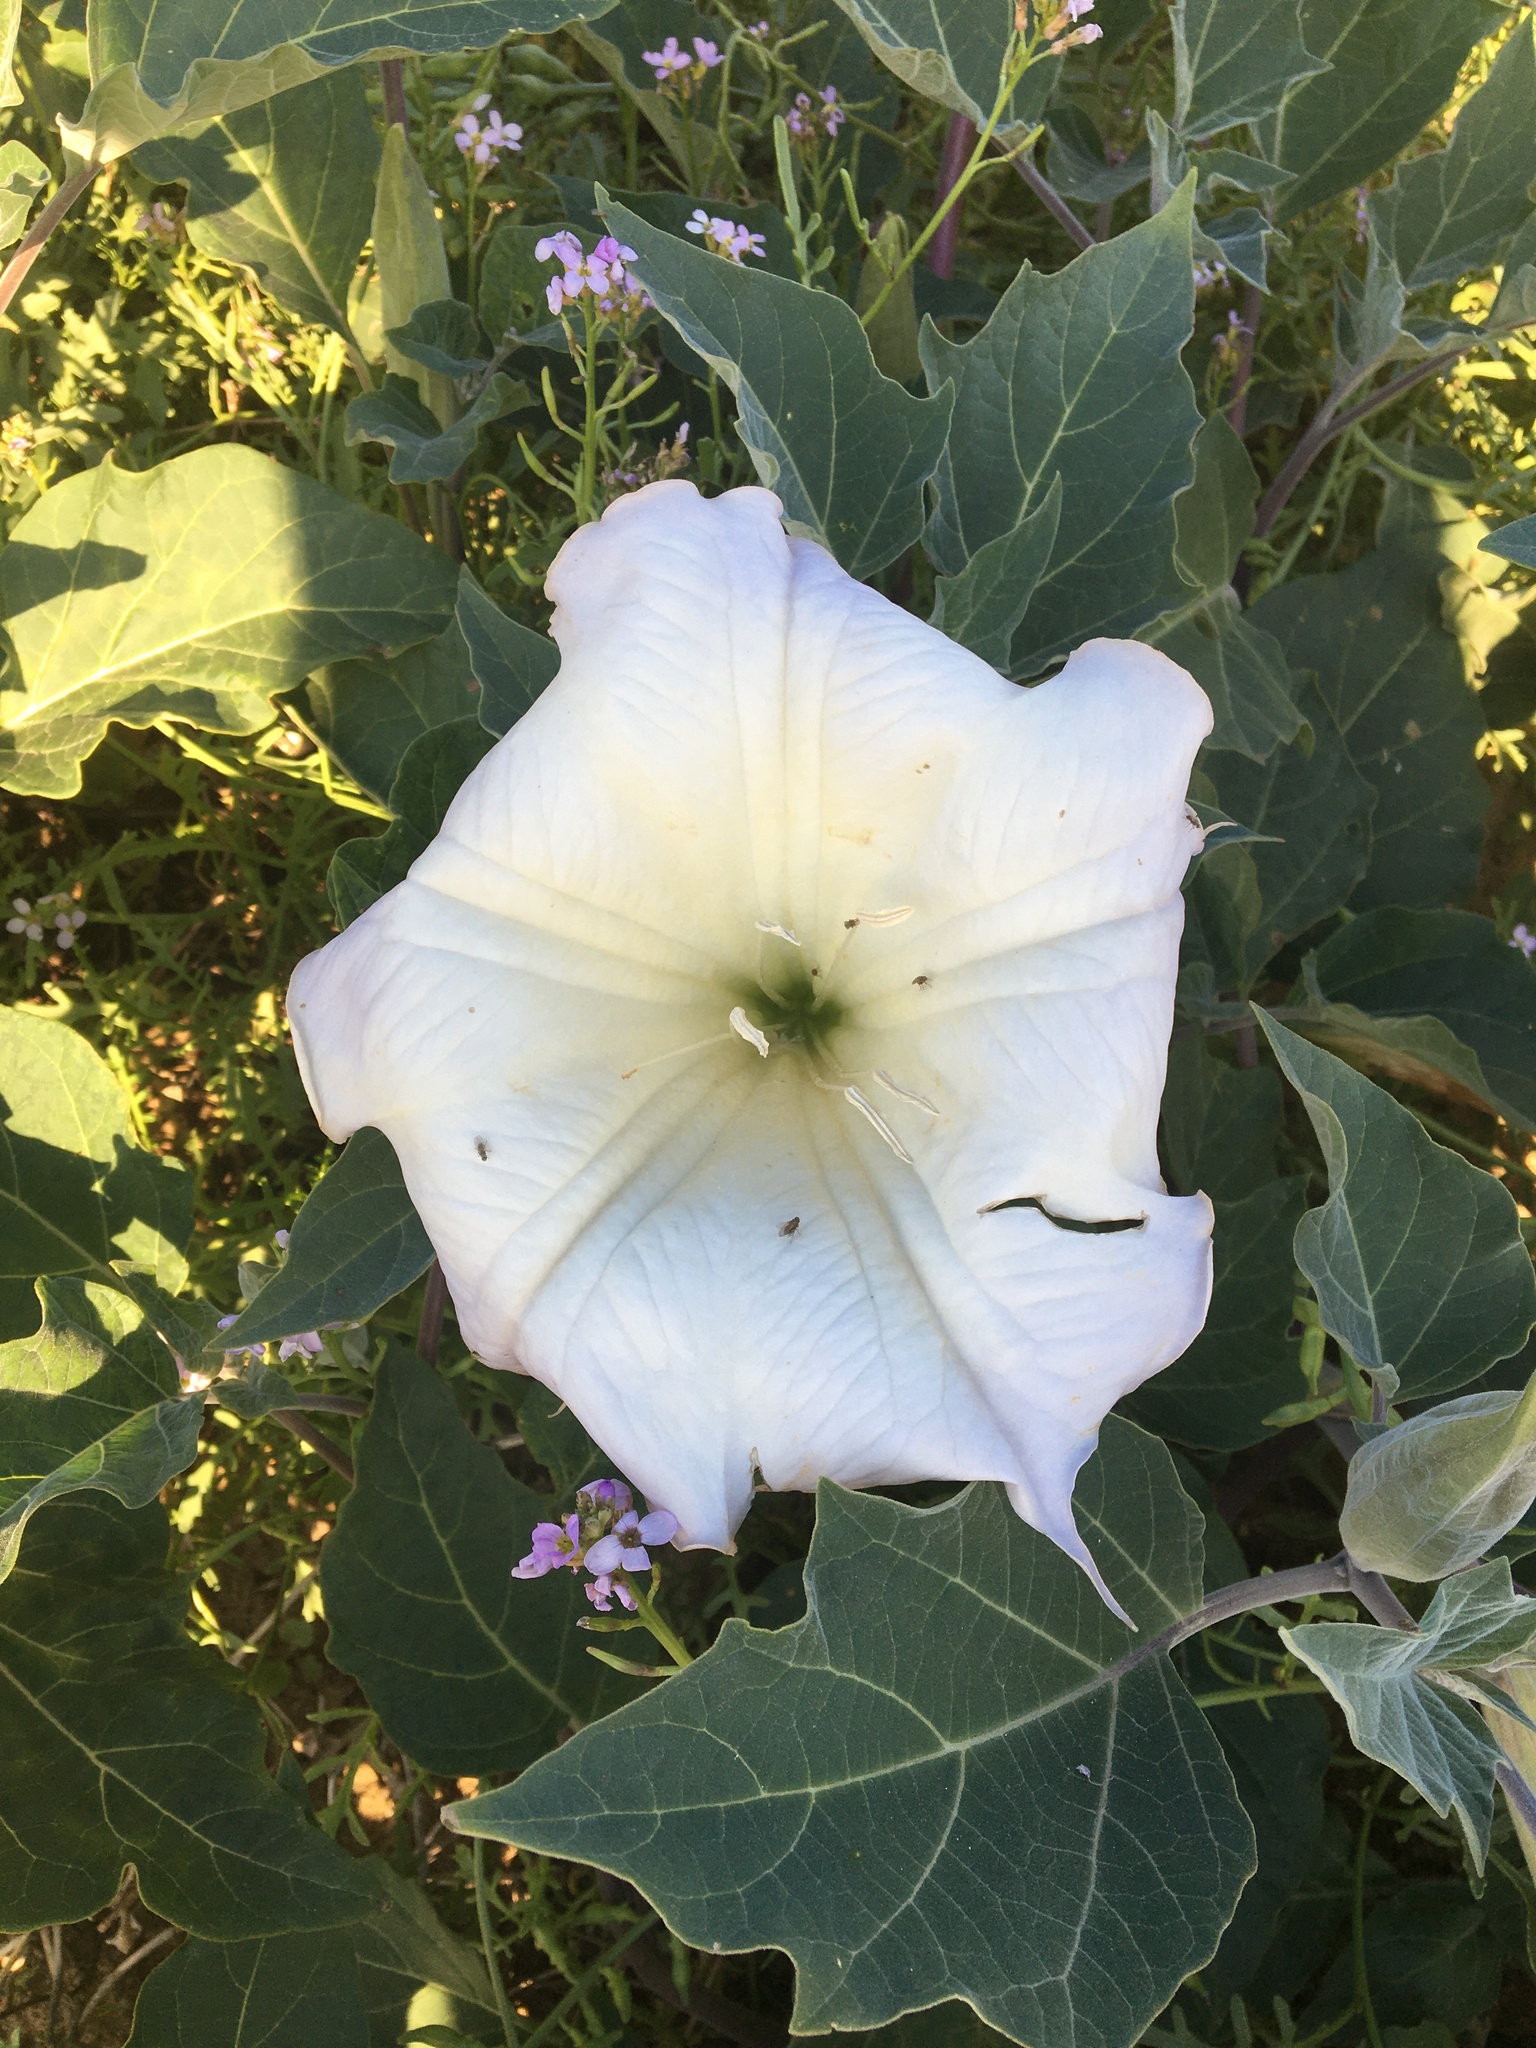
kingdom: Plantae
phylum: Tracheophyta
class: Magnoliopsida
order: Solanales
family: Solanaceae
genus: Datura
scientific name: Datura wrightii
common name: Sacred thorn-apple
